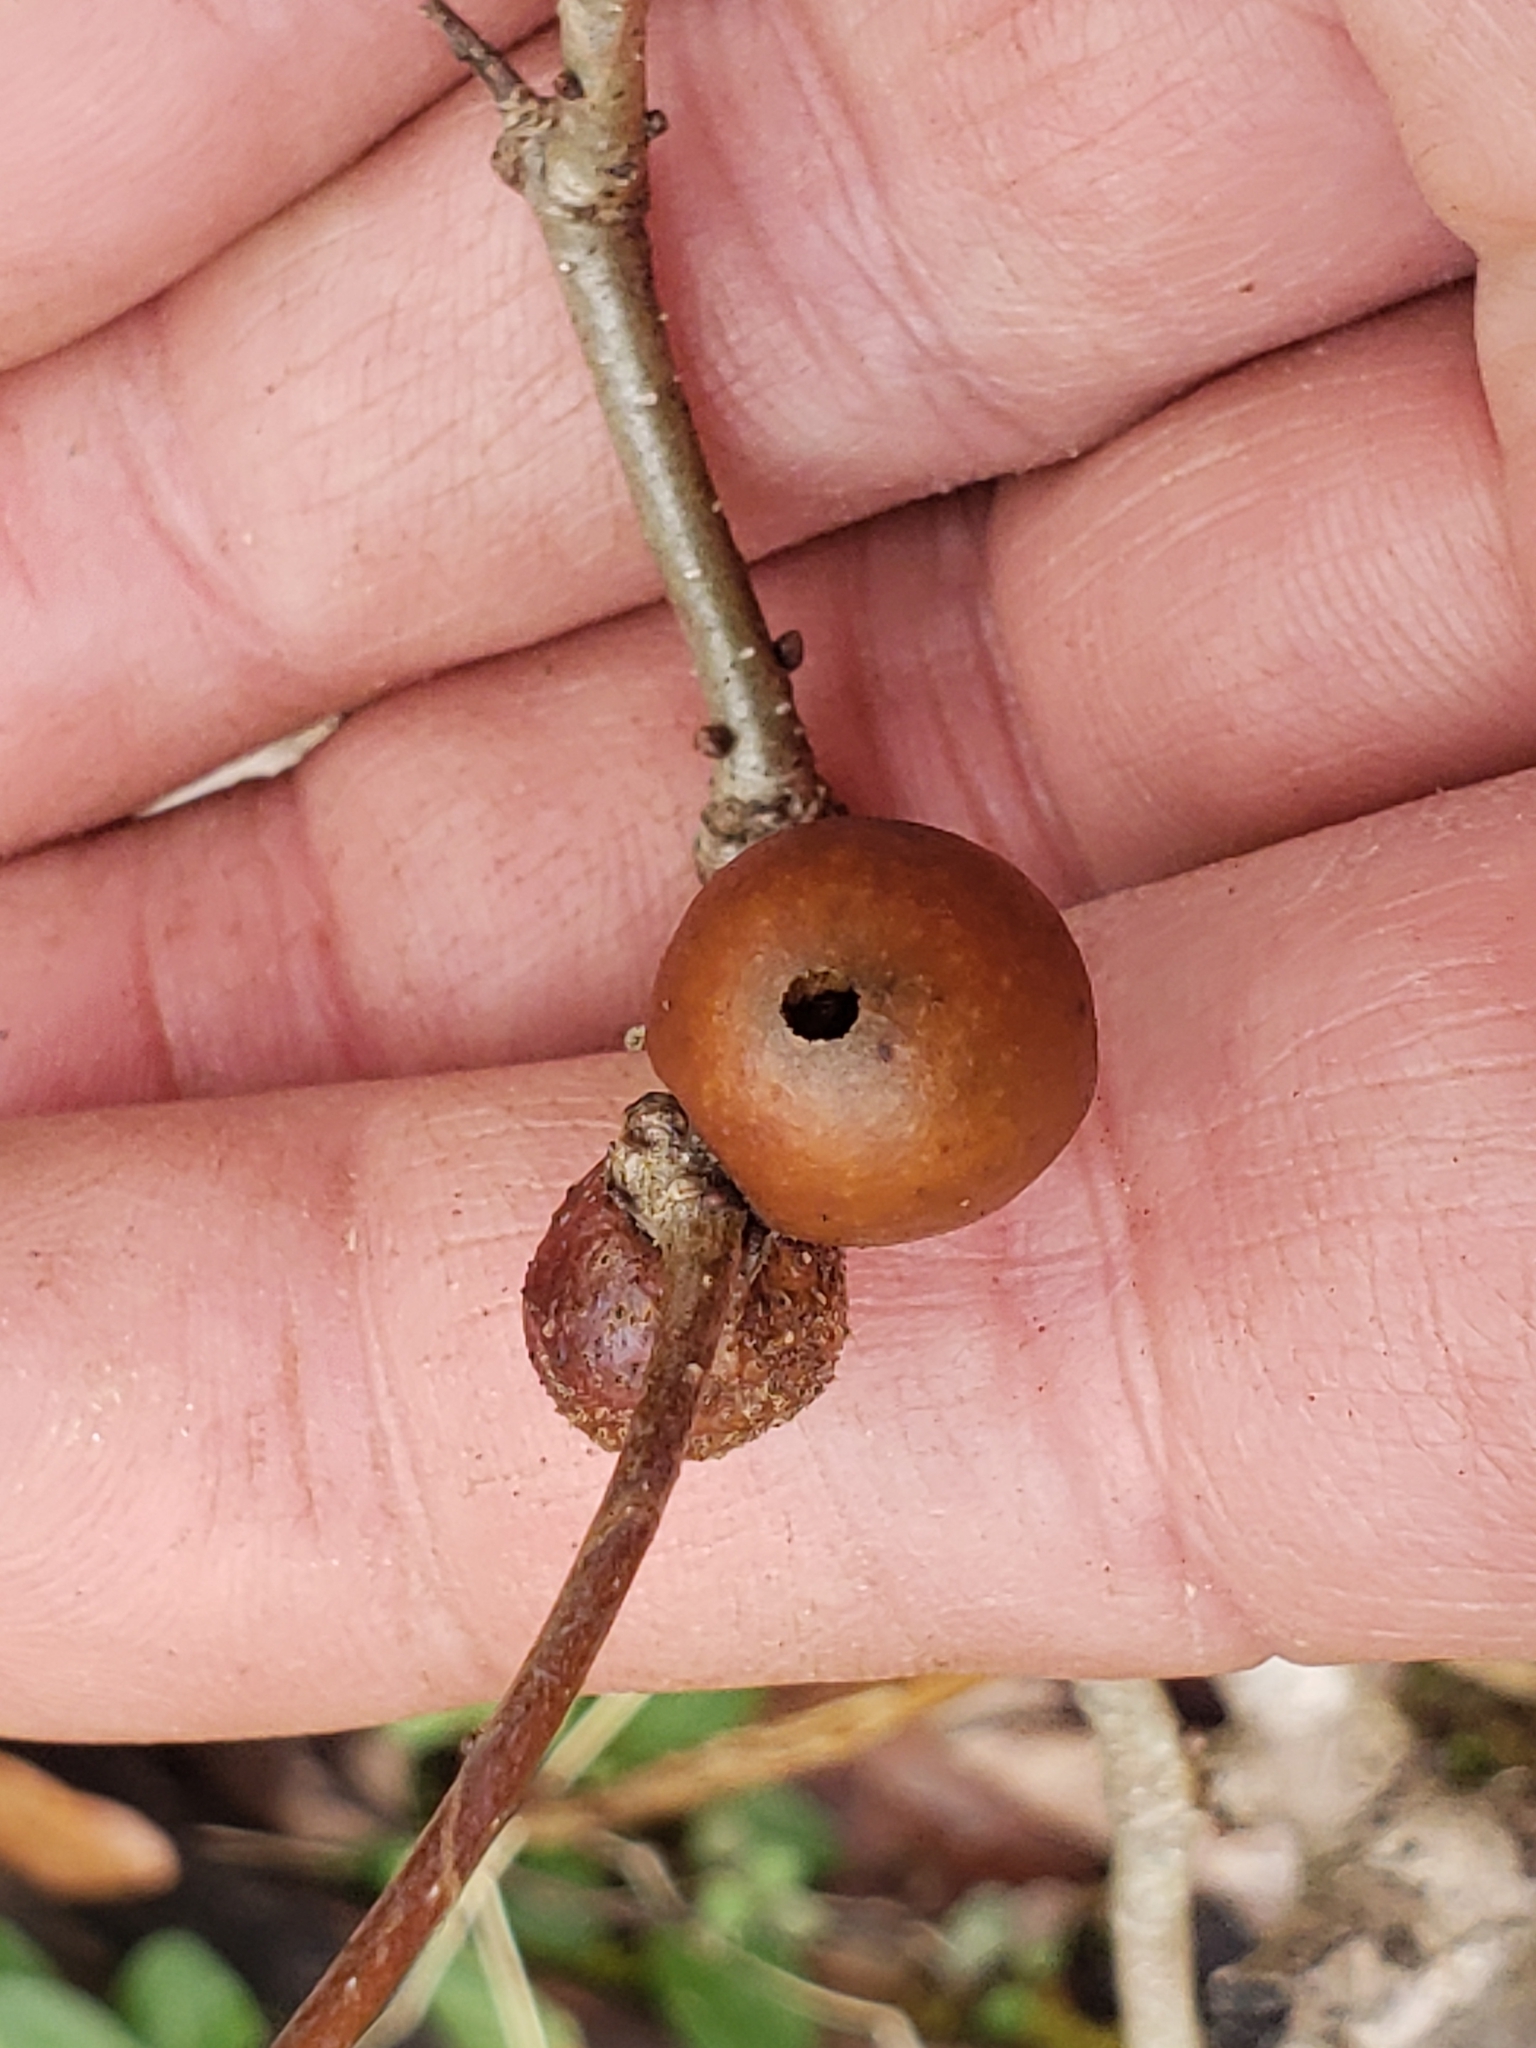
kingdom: Animalia
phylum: Arthropoda
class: Insecta
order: Hymenoptera
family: Cynipidae
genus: Disholcaspis
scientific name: Disholcaspis quercusglobulus
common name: Round bullet gall wasp
